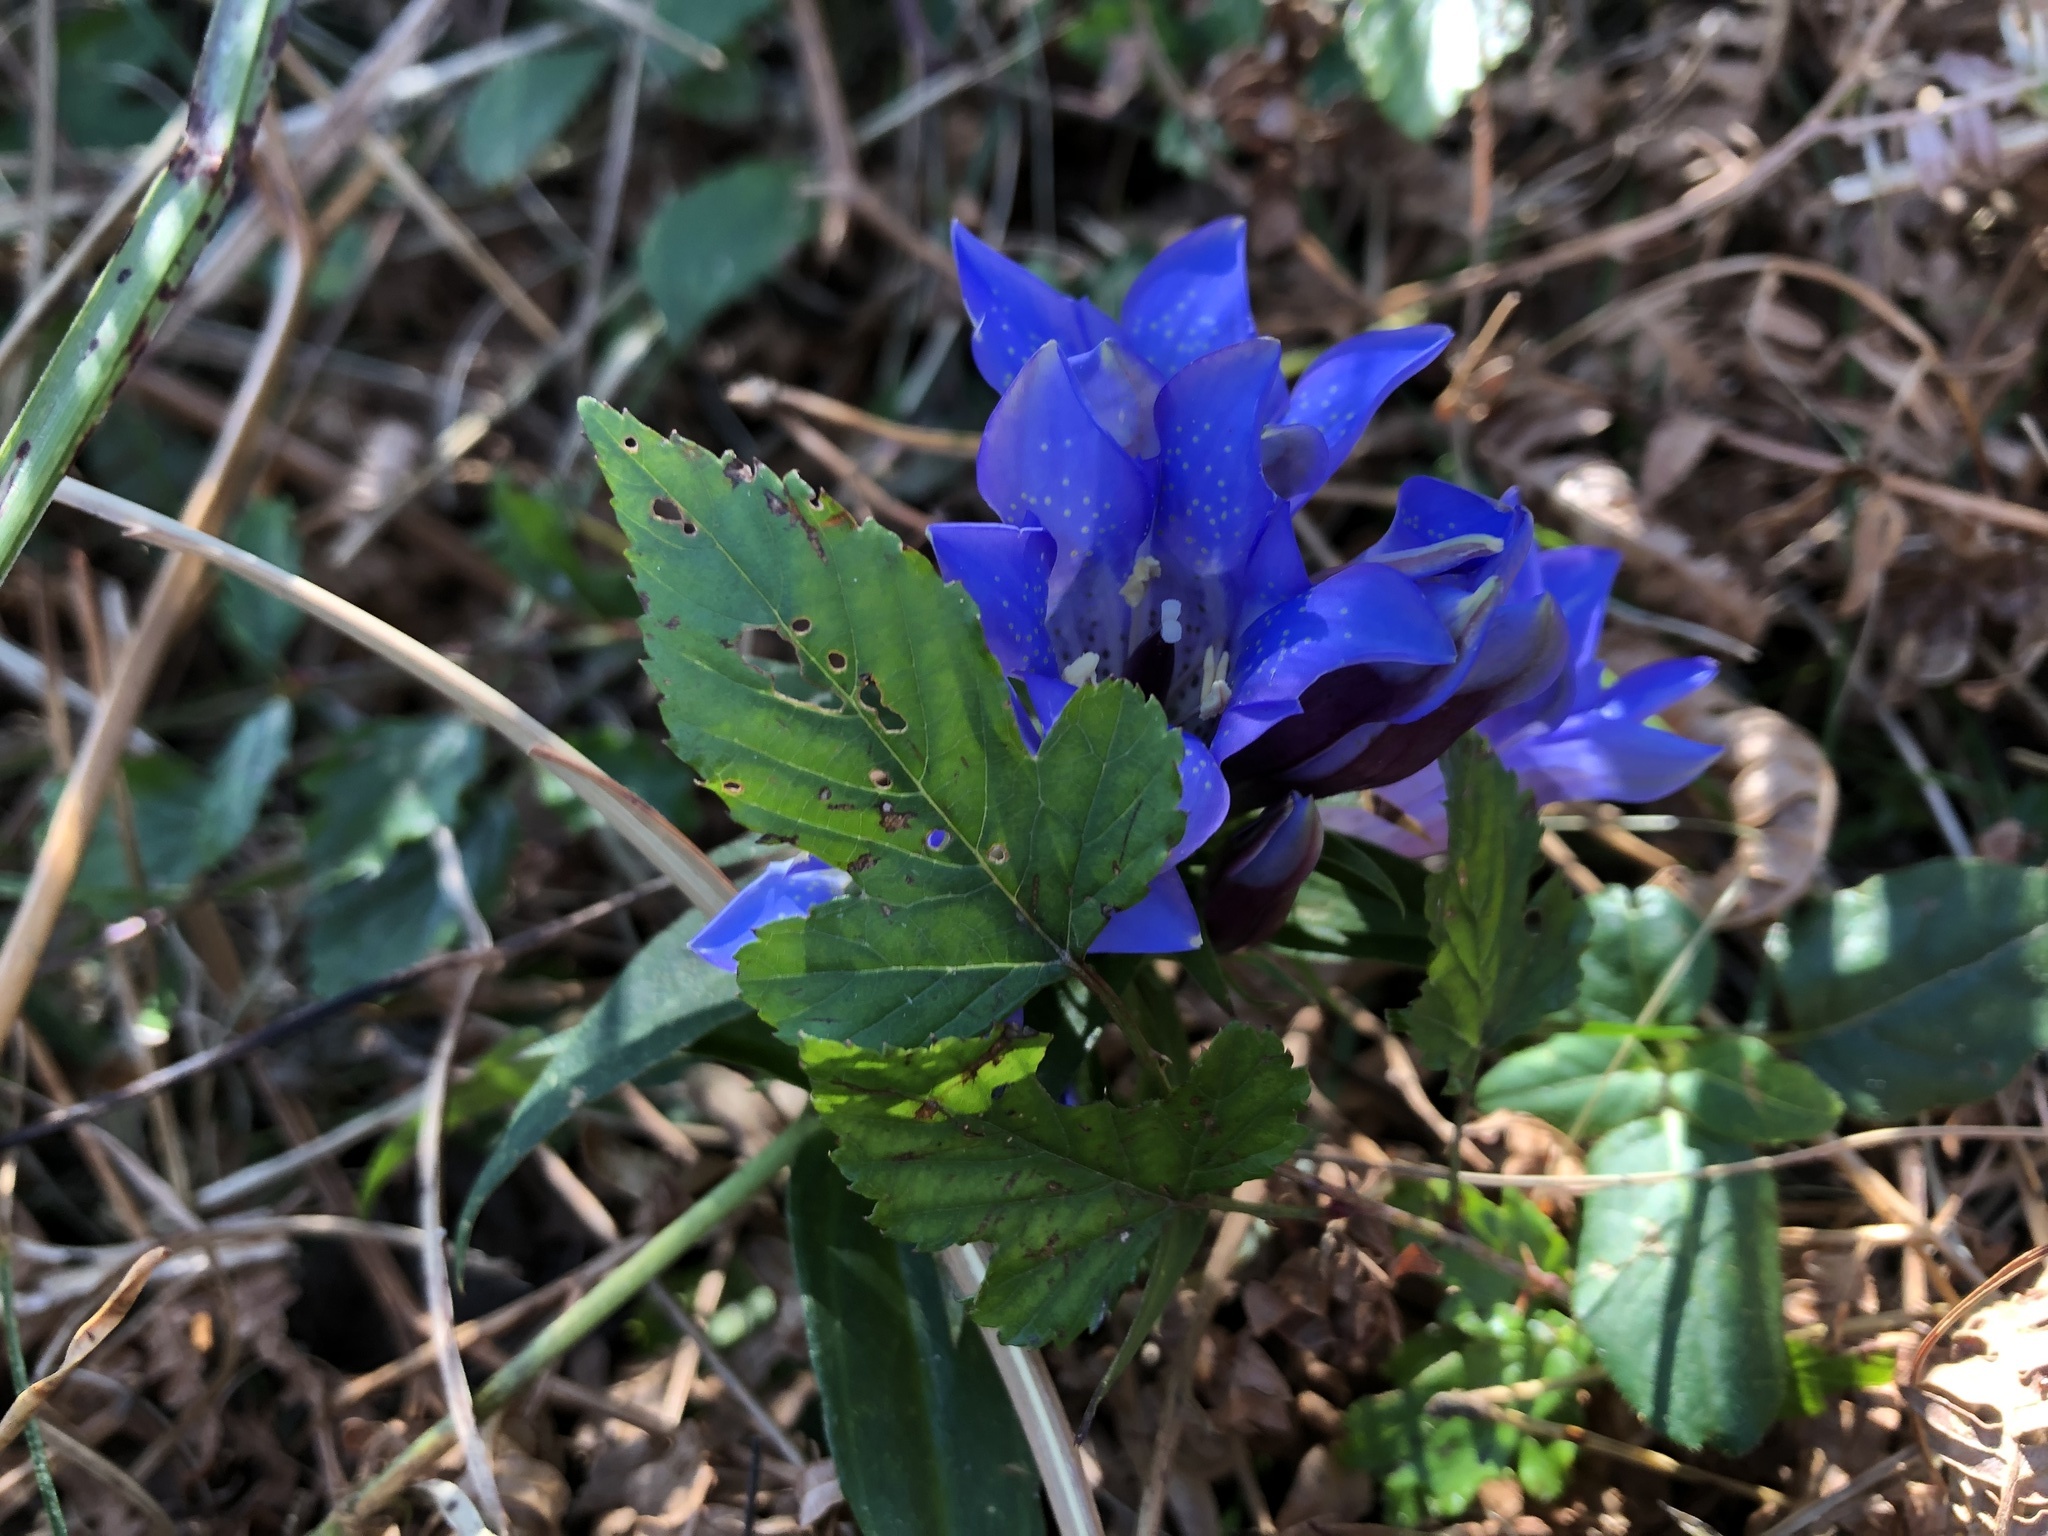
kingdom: Plantae
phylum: Tracheophyta
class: Magnoliopsida
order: Gentianales
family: Gentianaceae
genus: Gentiana
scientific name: Gentiana scabra
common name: Scabrous gentian
